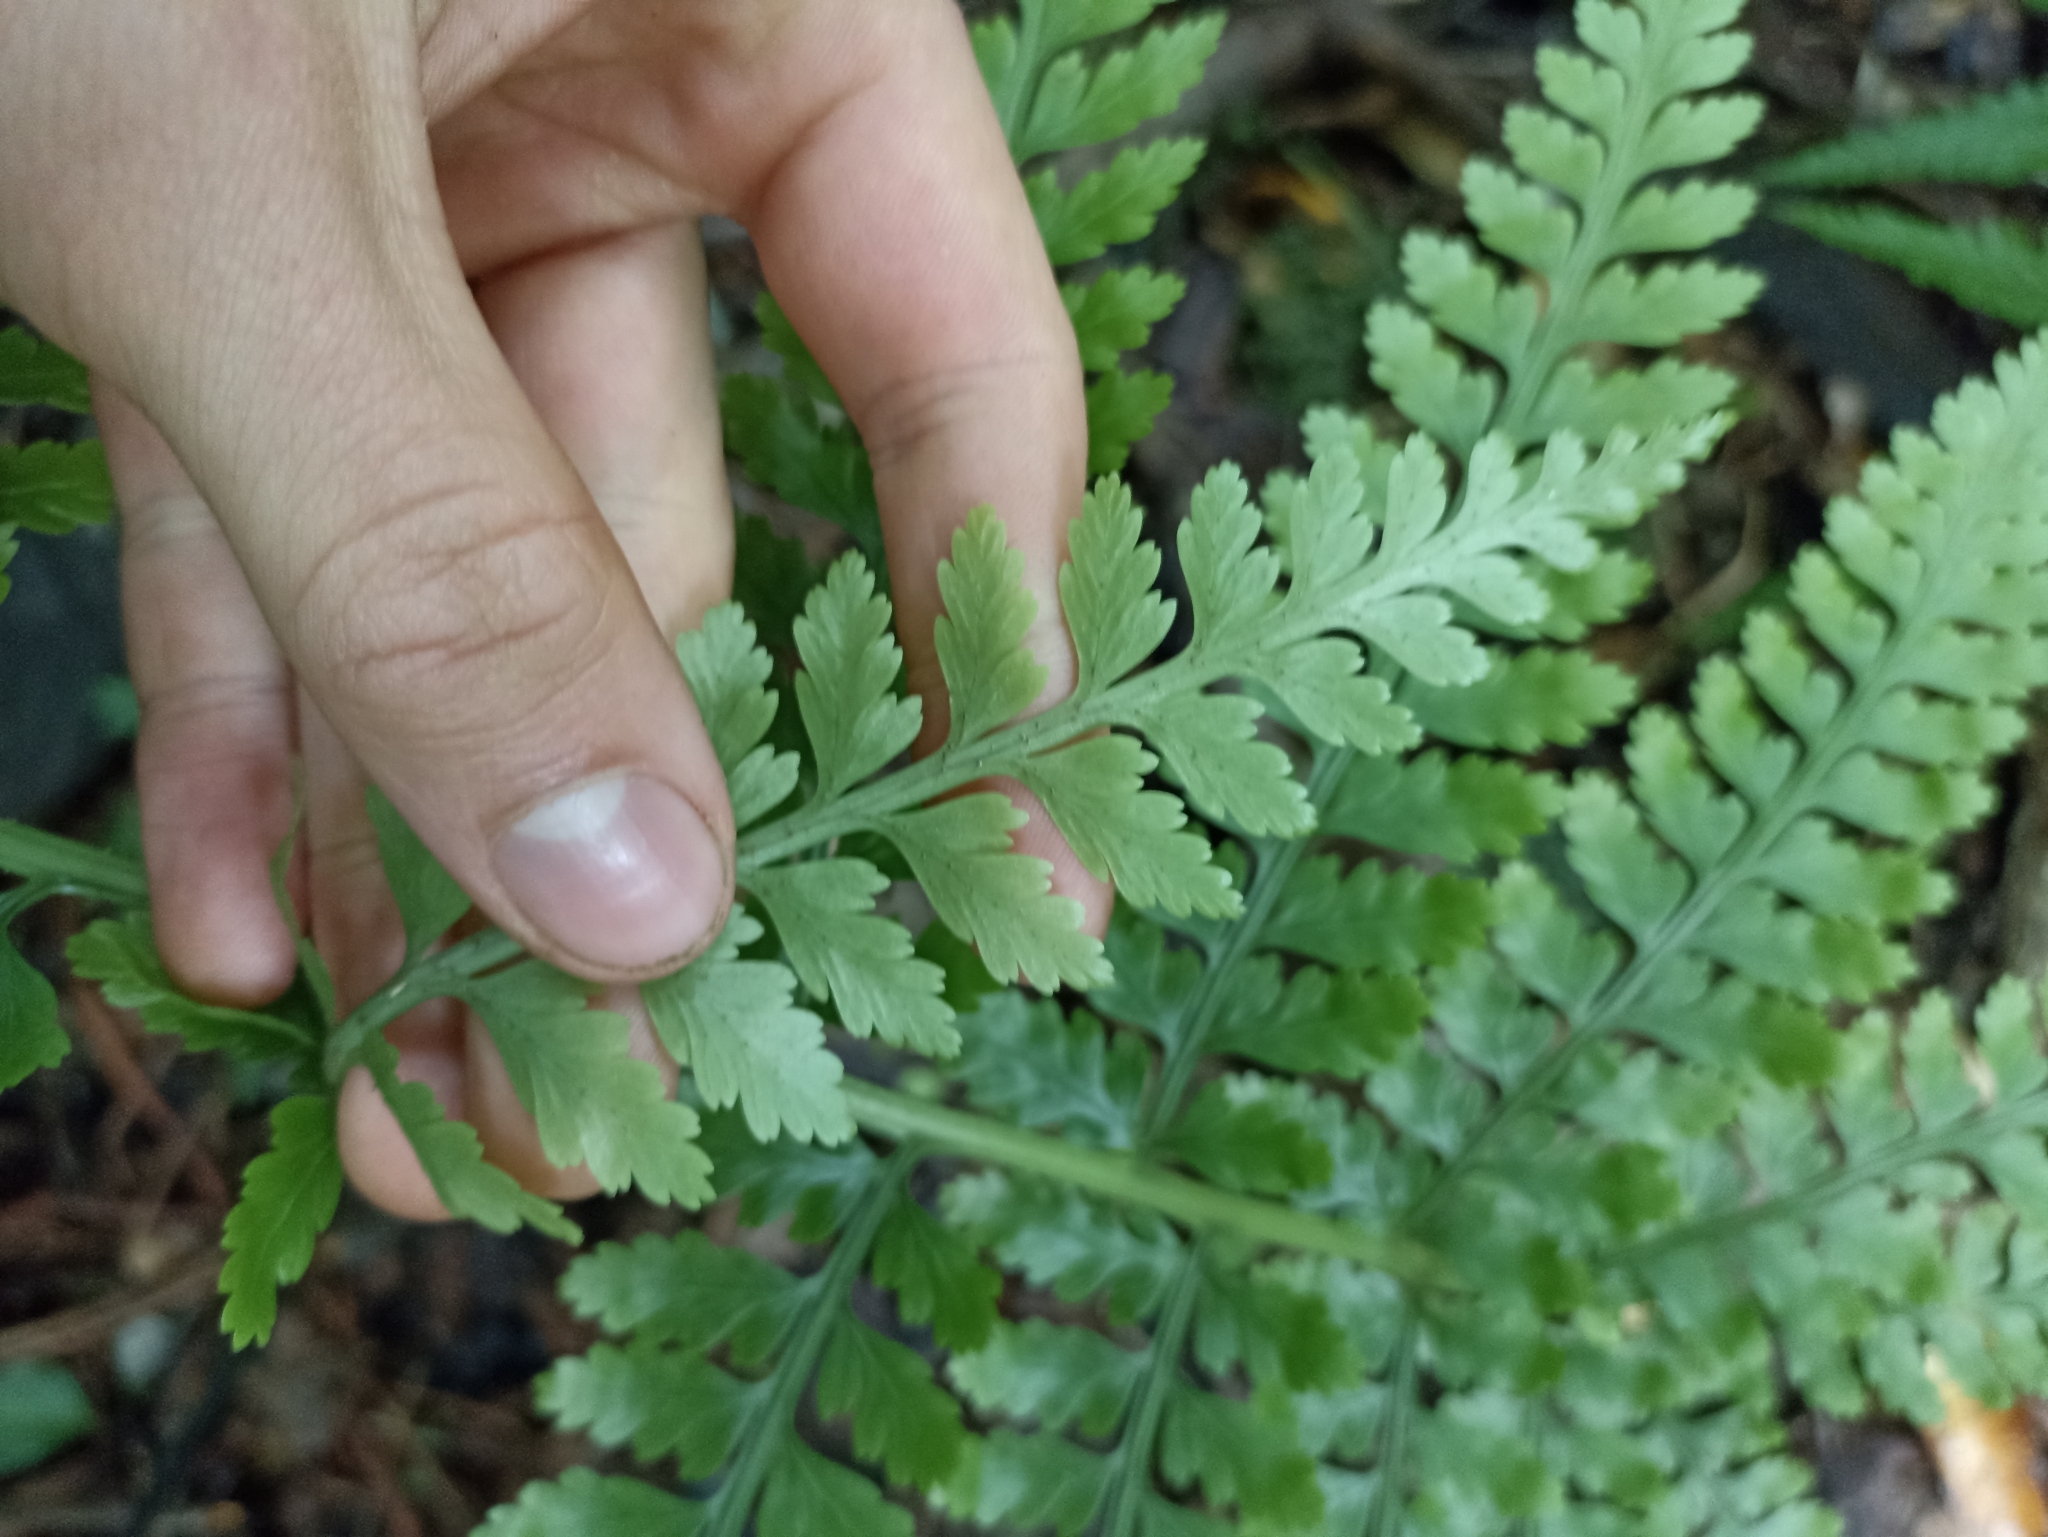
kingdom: Plantae
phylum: Tracheophyta
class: Polypodiopsida
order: Polypodiales
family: Aspleniaceae
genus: Asplenium
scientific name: Asplenium bulbiferum
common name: Mother fern
